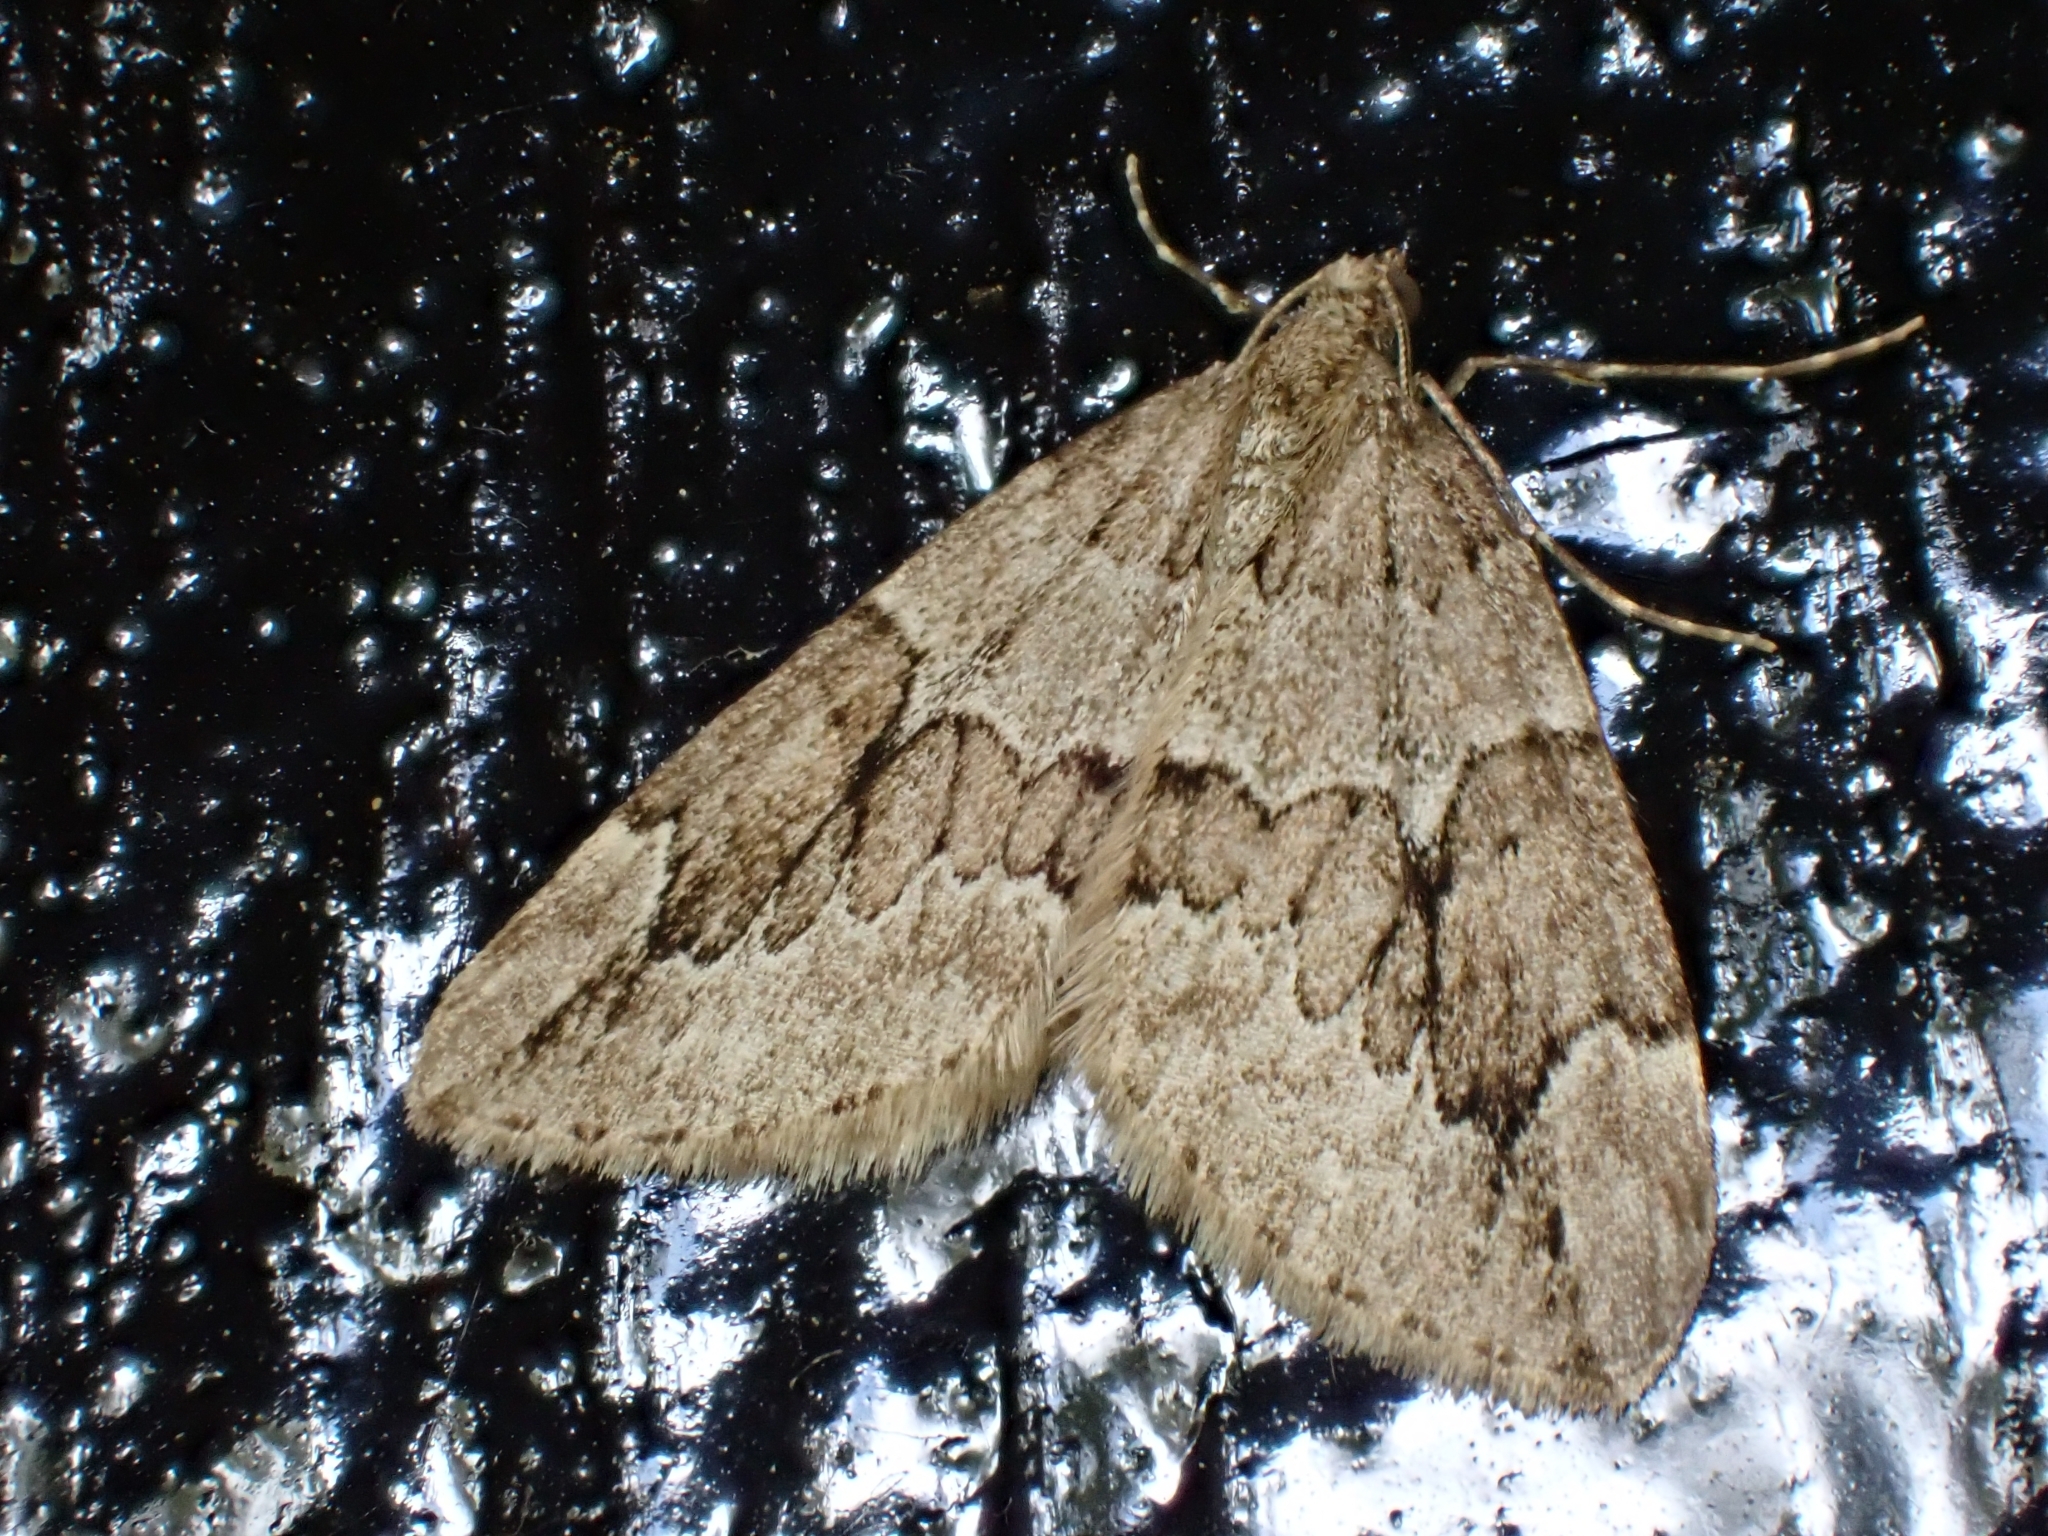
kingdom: Animalia
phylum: Arthropoda
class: Insecta
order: Lepidoptera
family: Geometridae
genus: Thera
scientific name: Thera juniperata
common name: Juniper carpet
